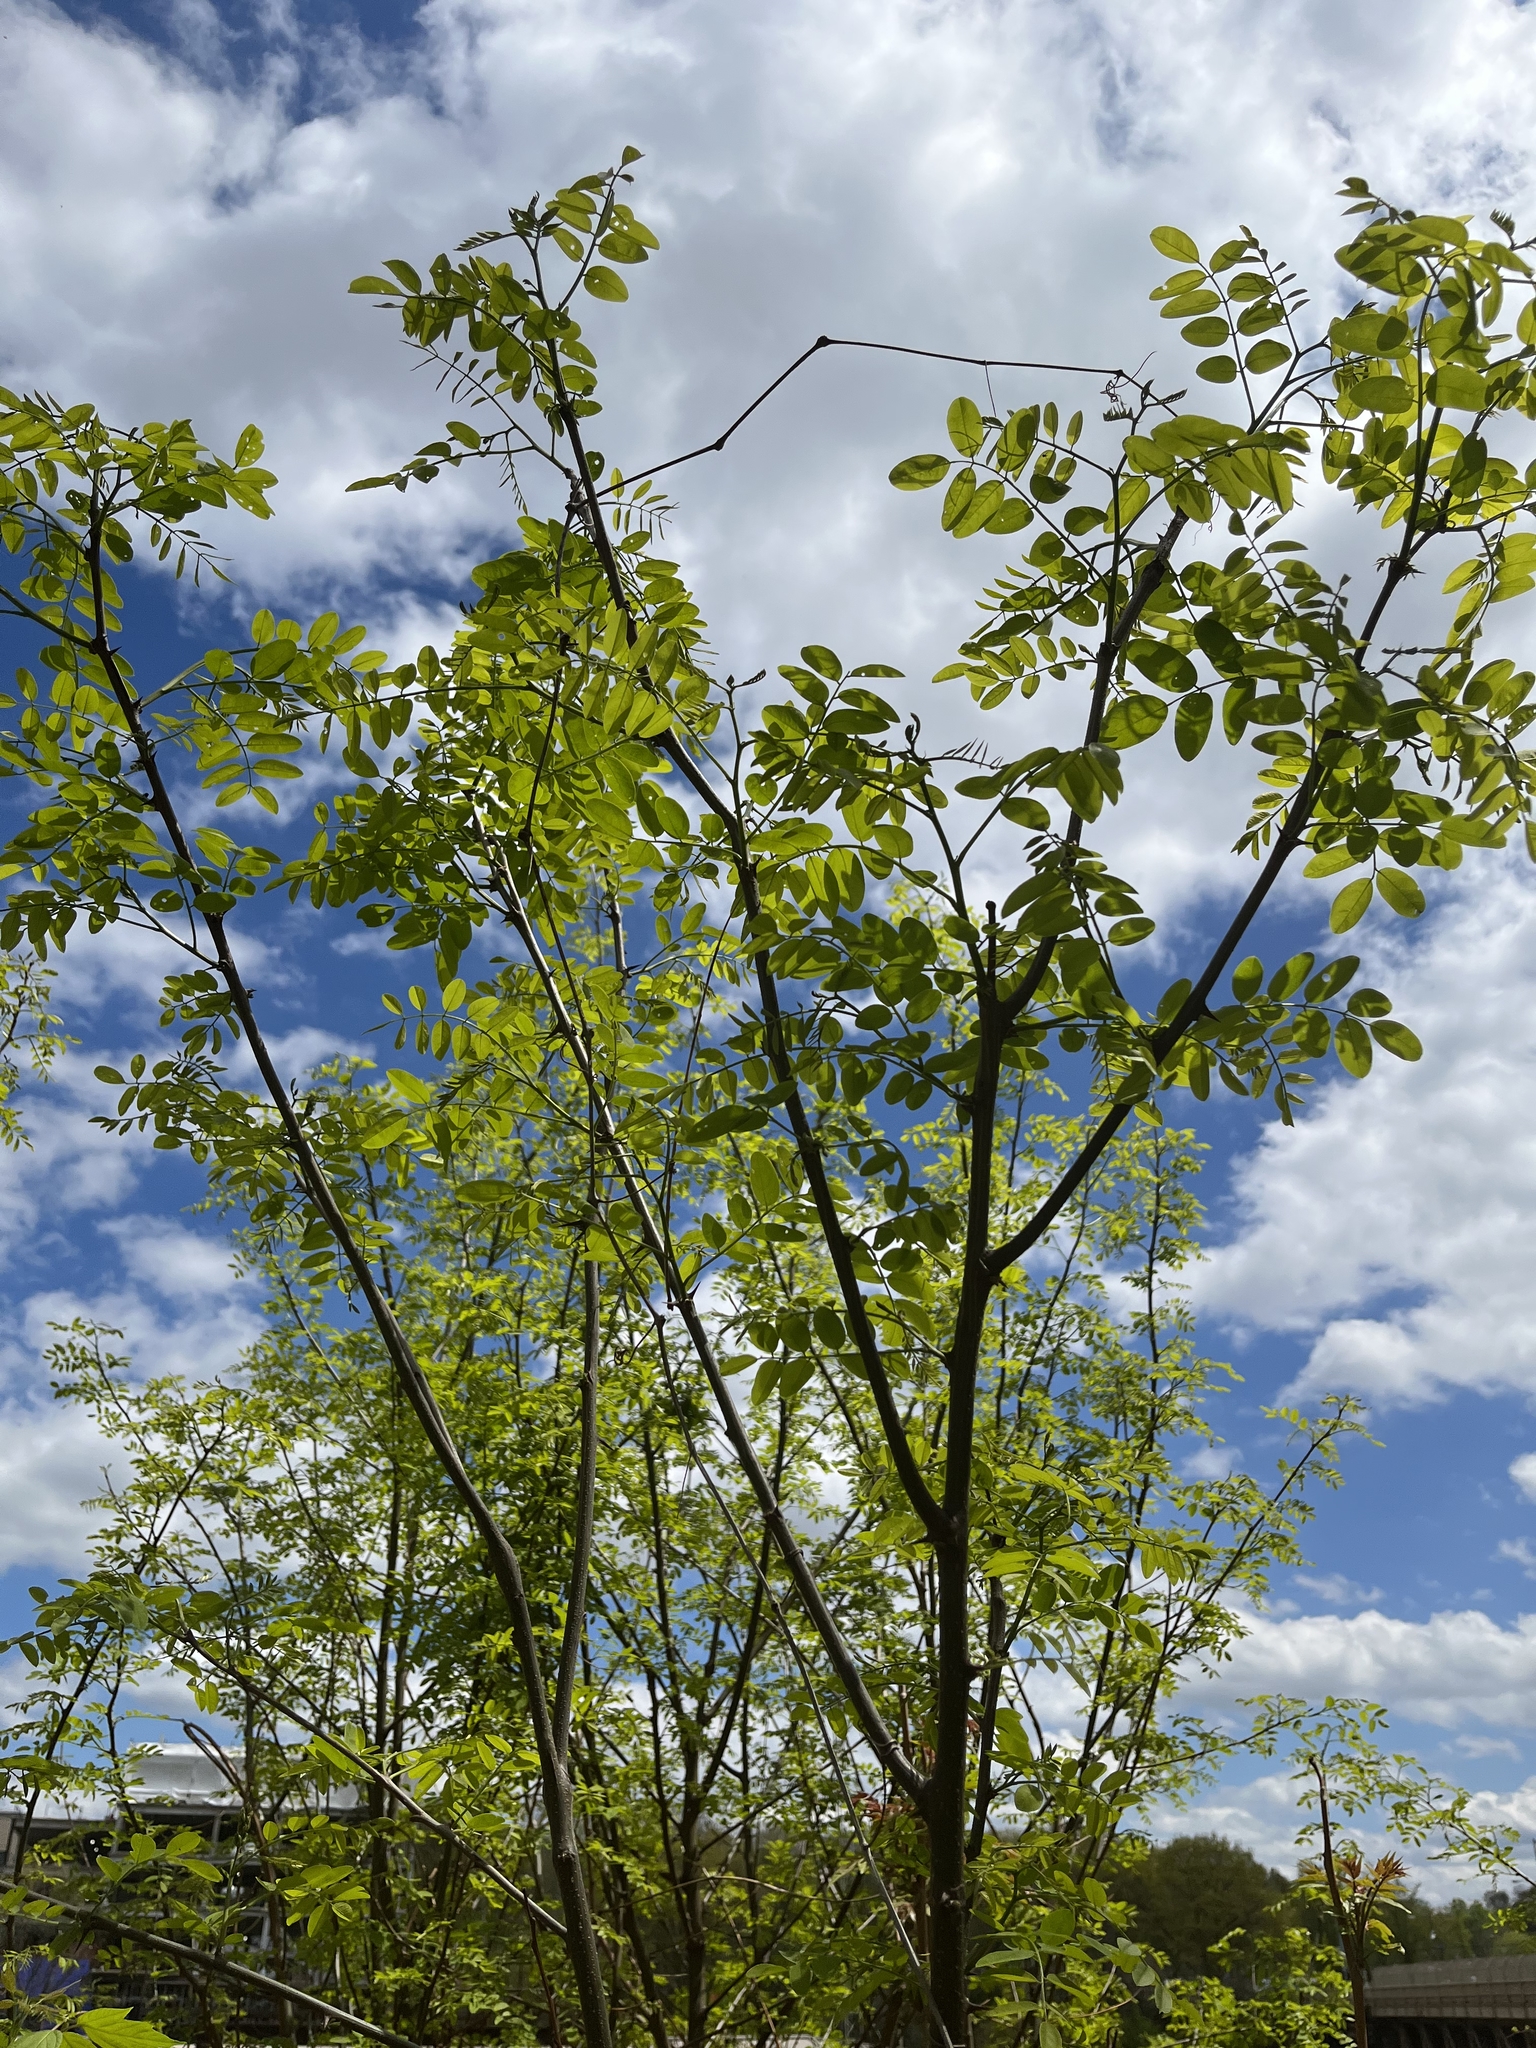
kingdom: Plantae
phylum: Tracheophyta
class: Magnoliopsida
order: Fabales
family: Fabaceae
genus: Robinia
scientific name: Robinia pseudoacacia
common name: Black locust
